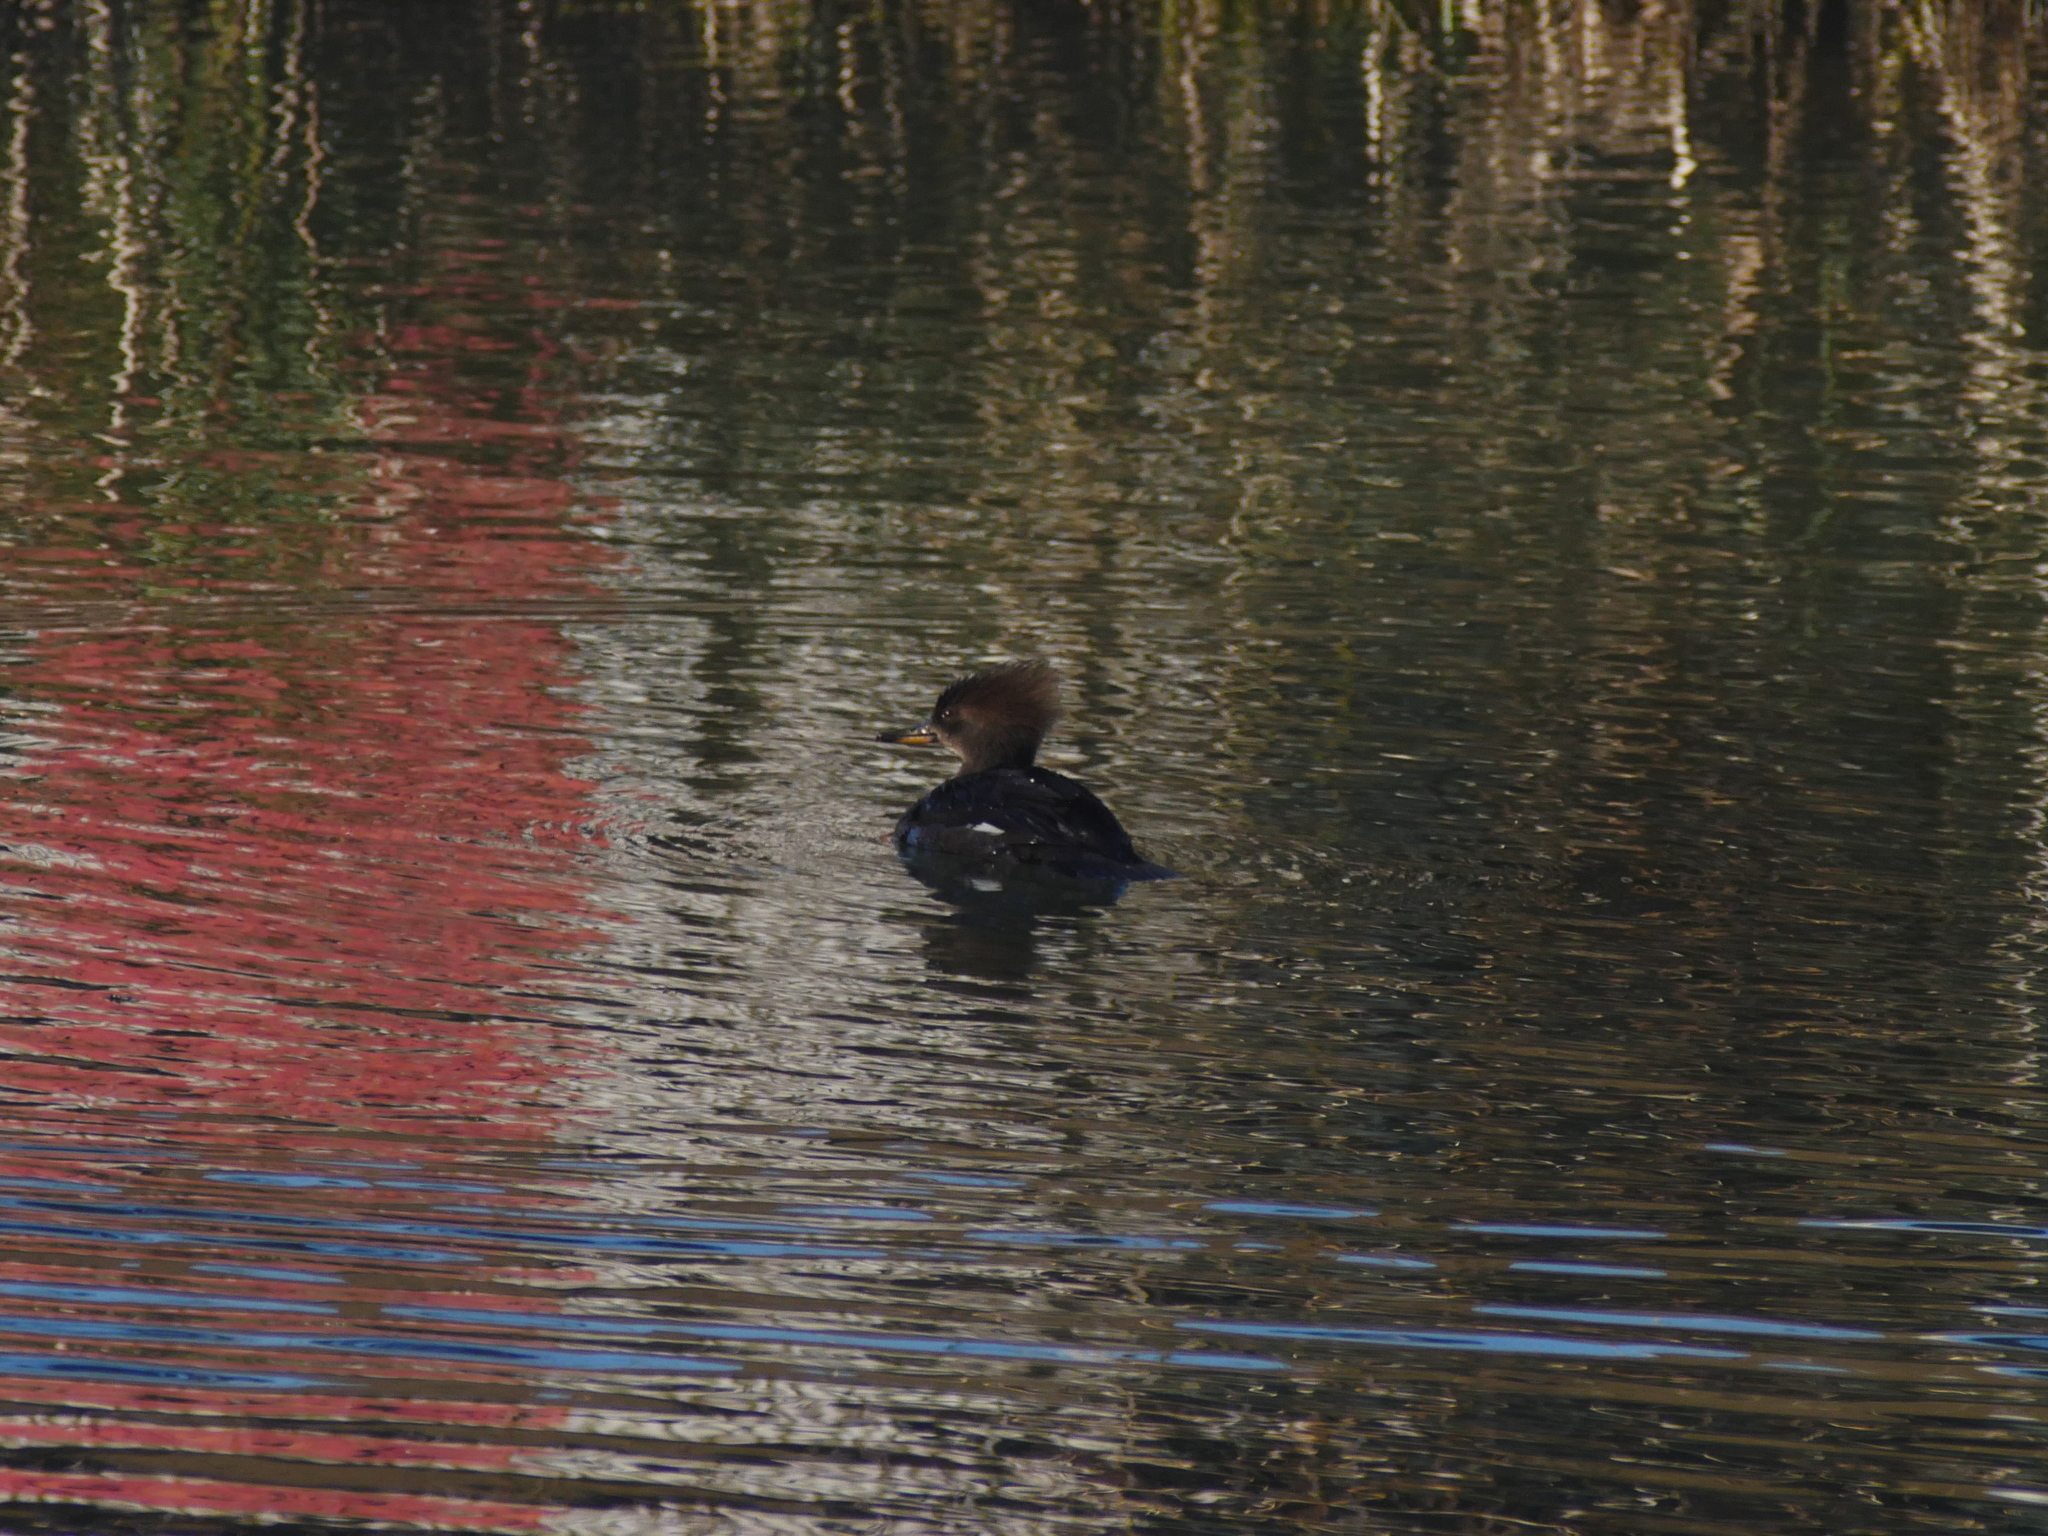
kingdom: Animalia
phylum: Chordata
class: Aves
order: Anseriformes
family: Anatidae
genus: Lophodytes
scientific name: Lophodytes cucullatus
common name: Hooded merganser
